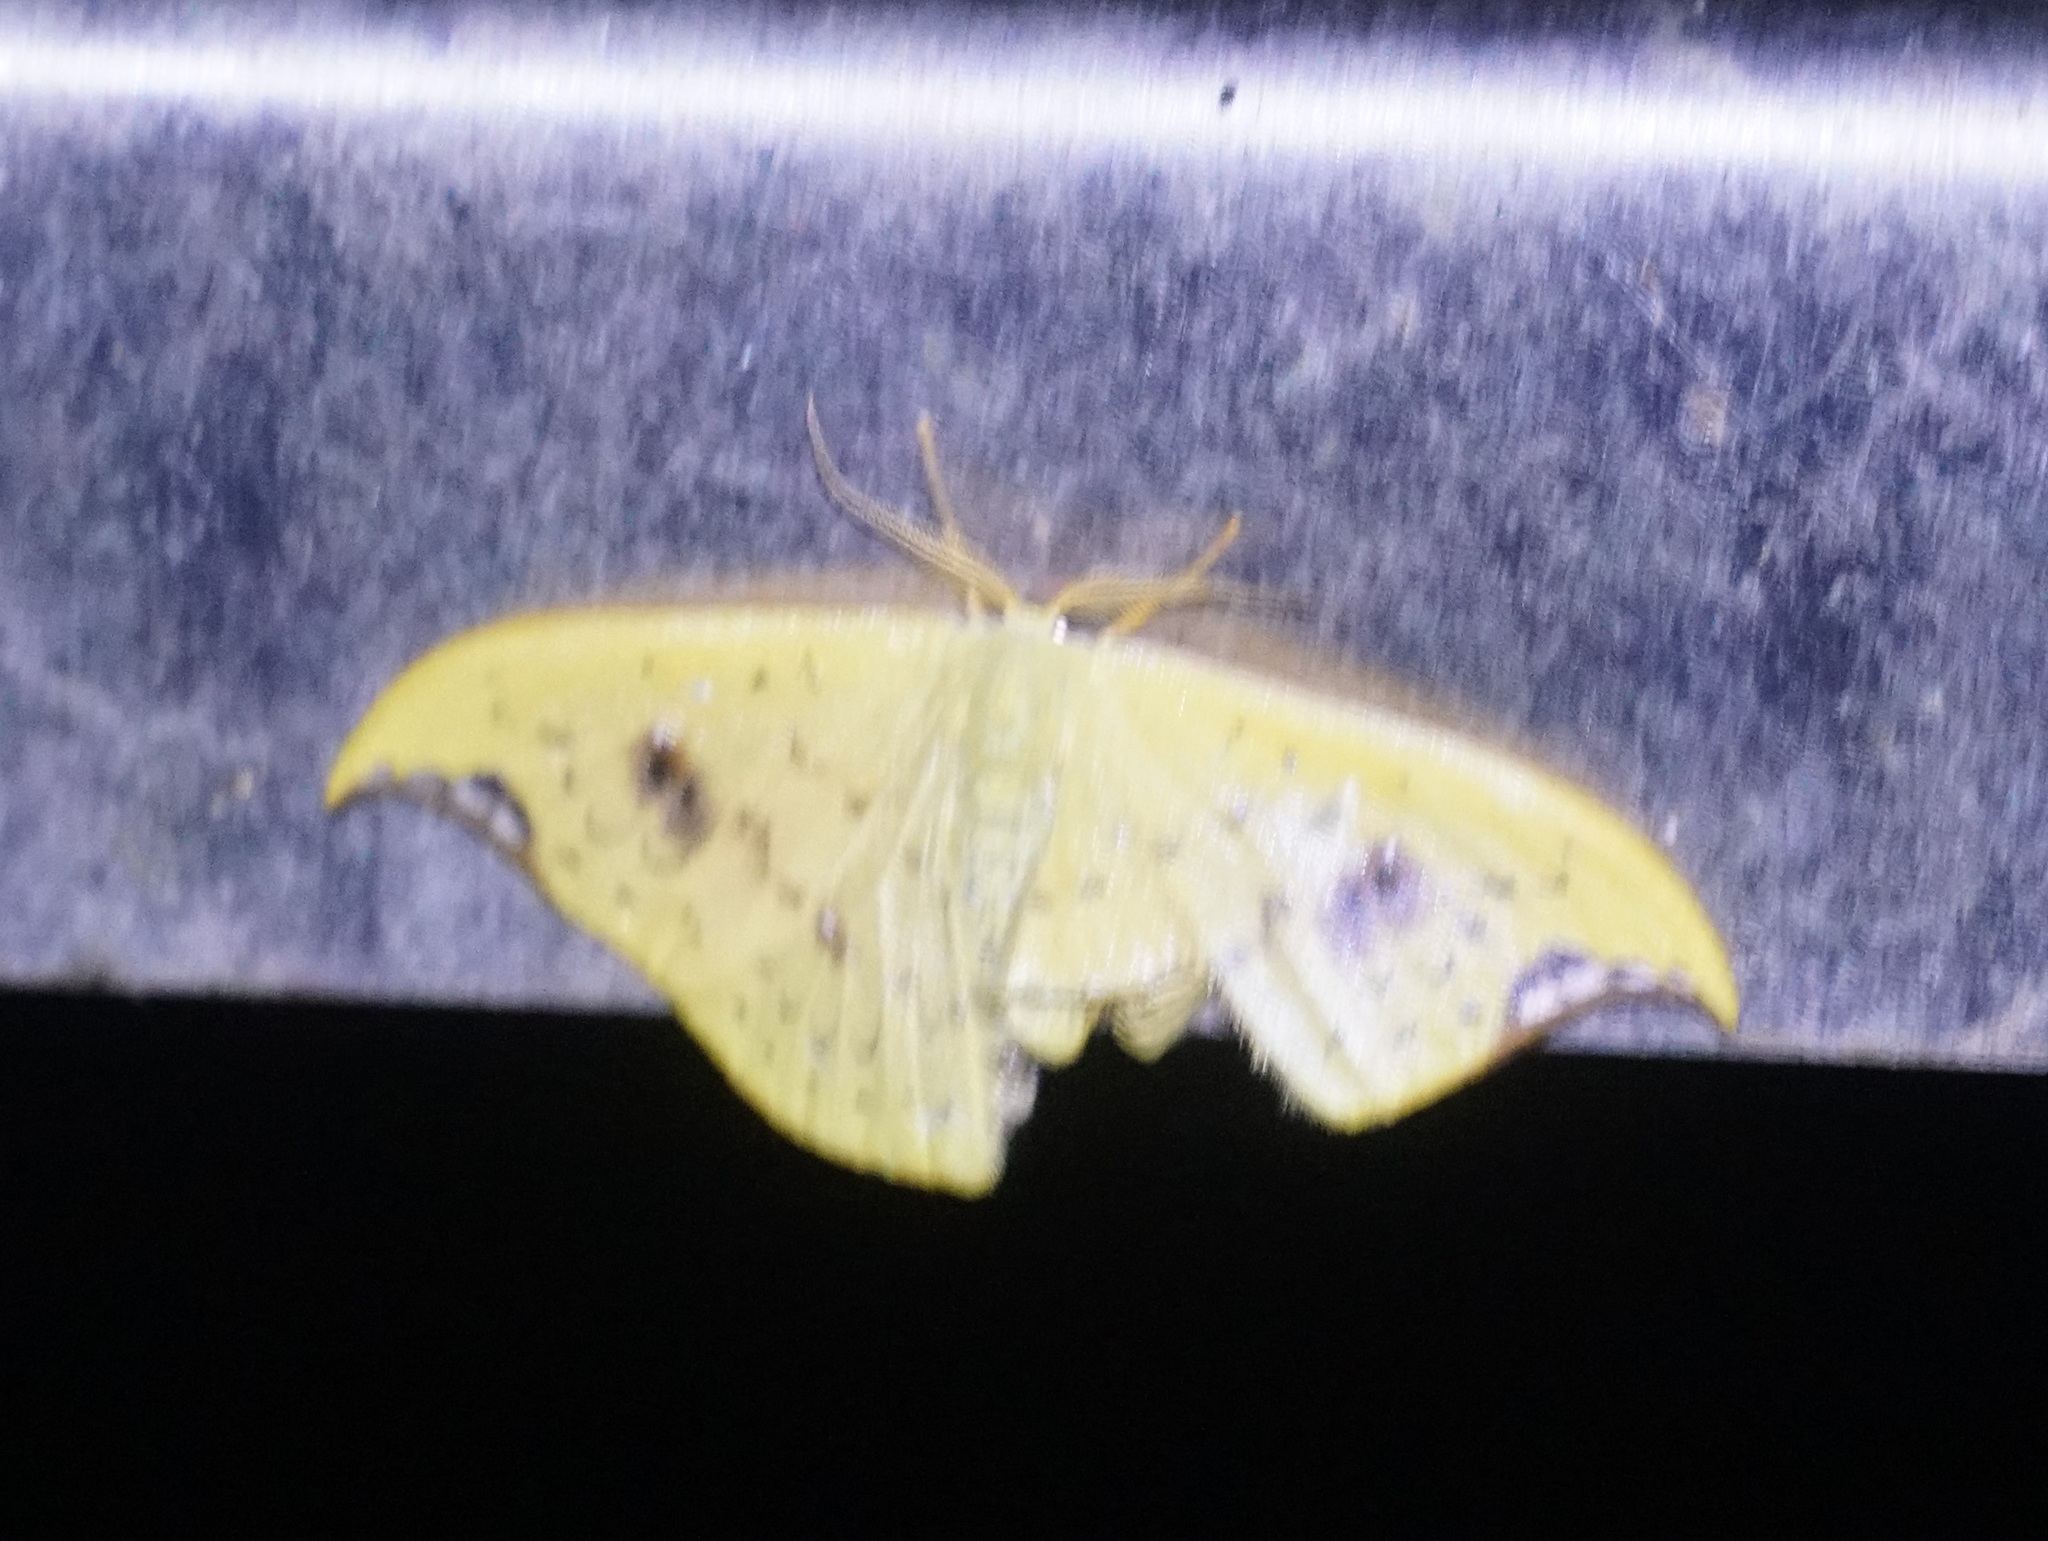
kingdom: Animalia
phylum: Arthropoda
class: Insecta
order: Lepidoptera
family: Drepanidae
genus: Tridrepana
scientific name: Tridrepana lunulata
